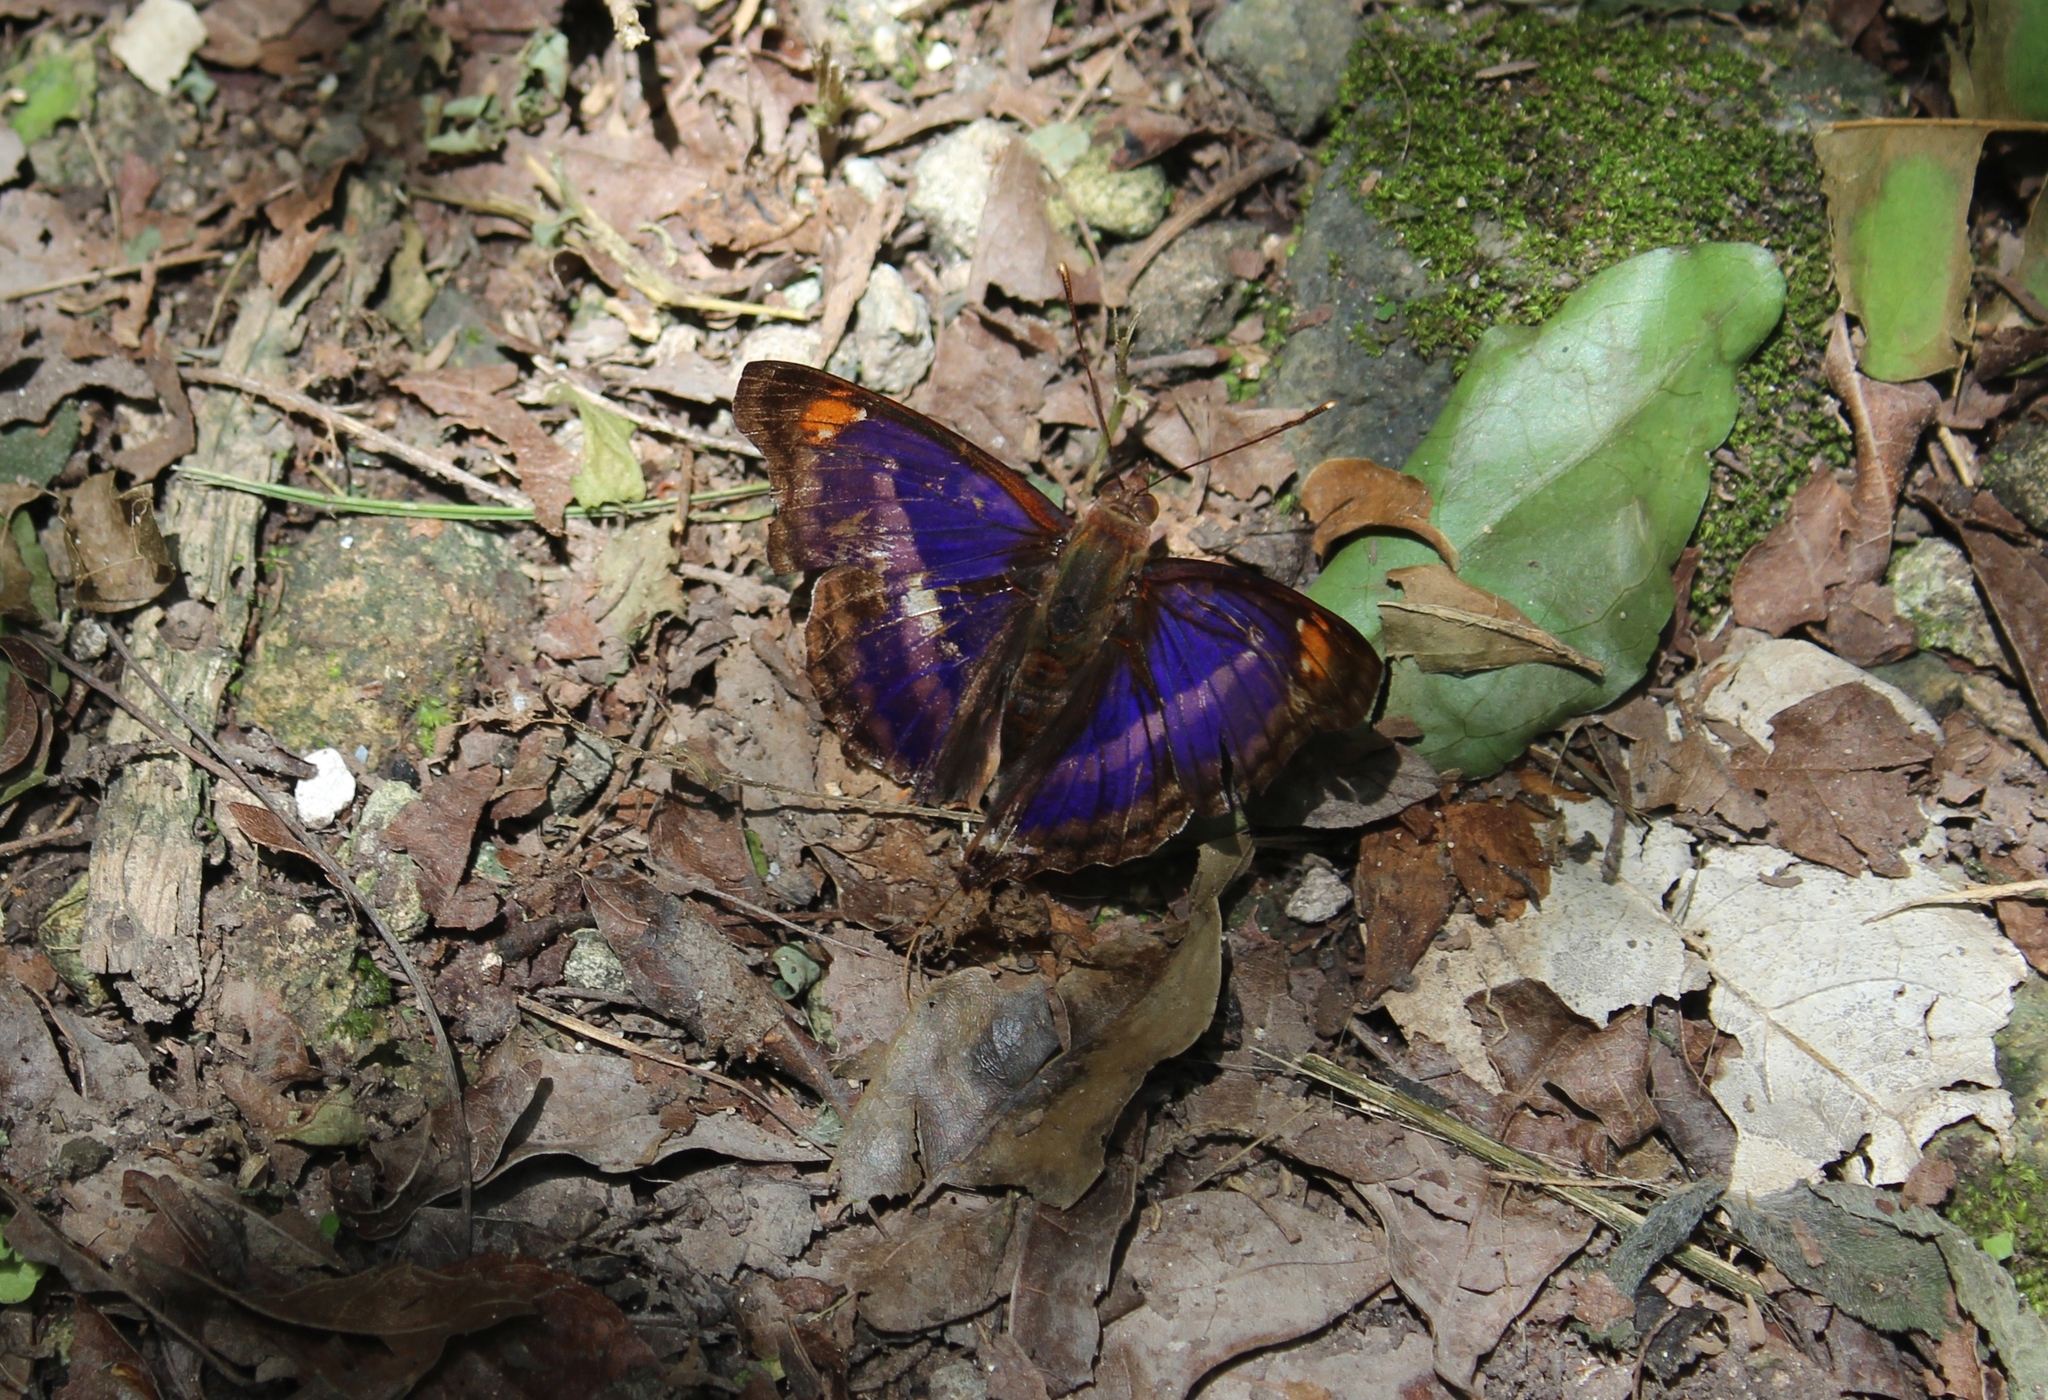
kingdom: Animalia
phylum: Arthropoda
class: Insecta
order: Lepidoptera
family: Nymphalidae
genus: Doxocopa
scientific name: Doxocopa pavonii
